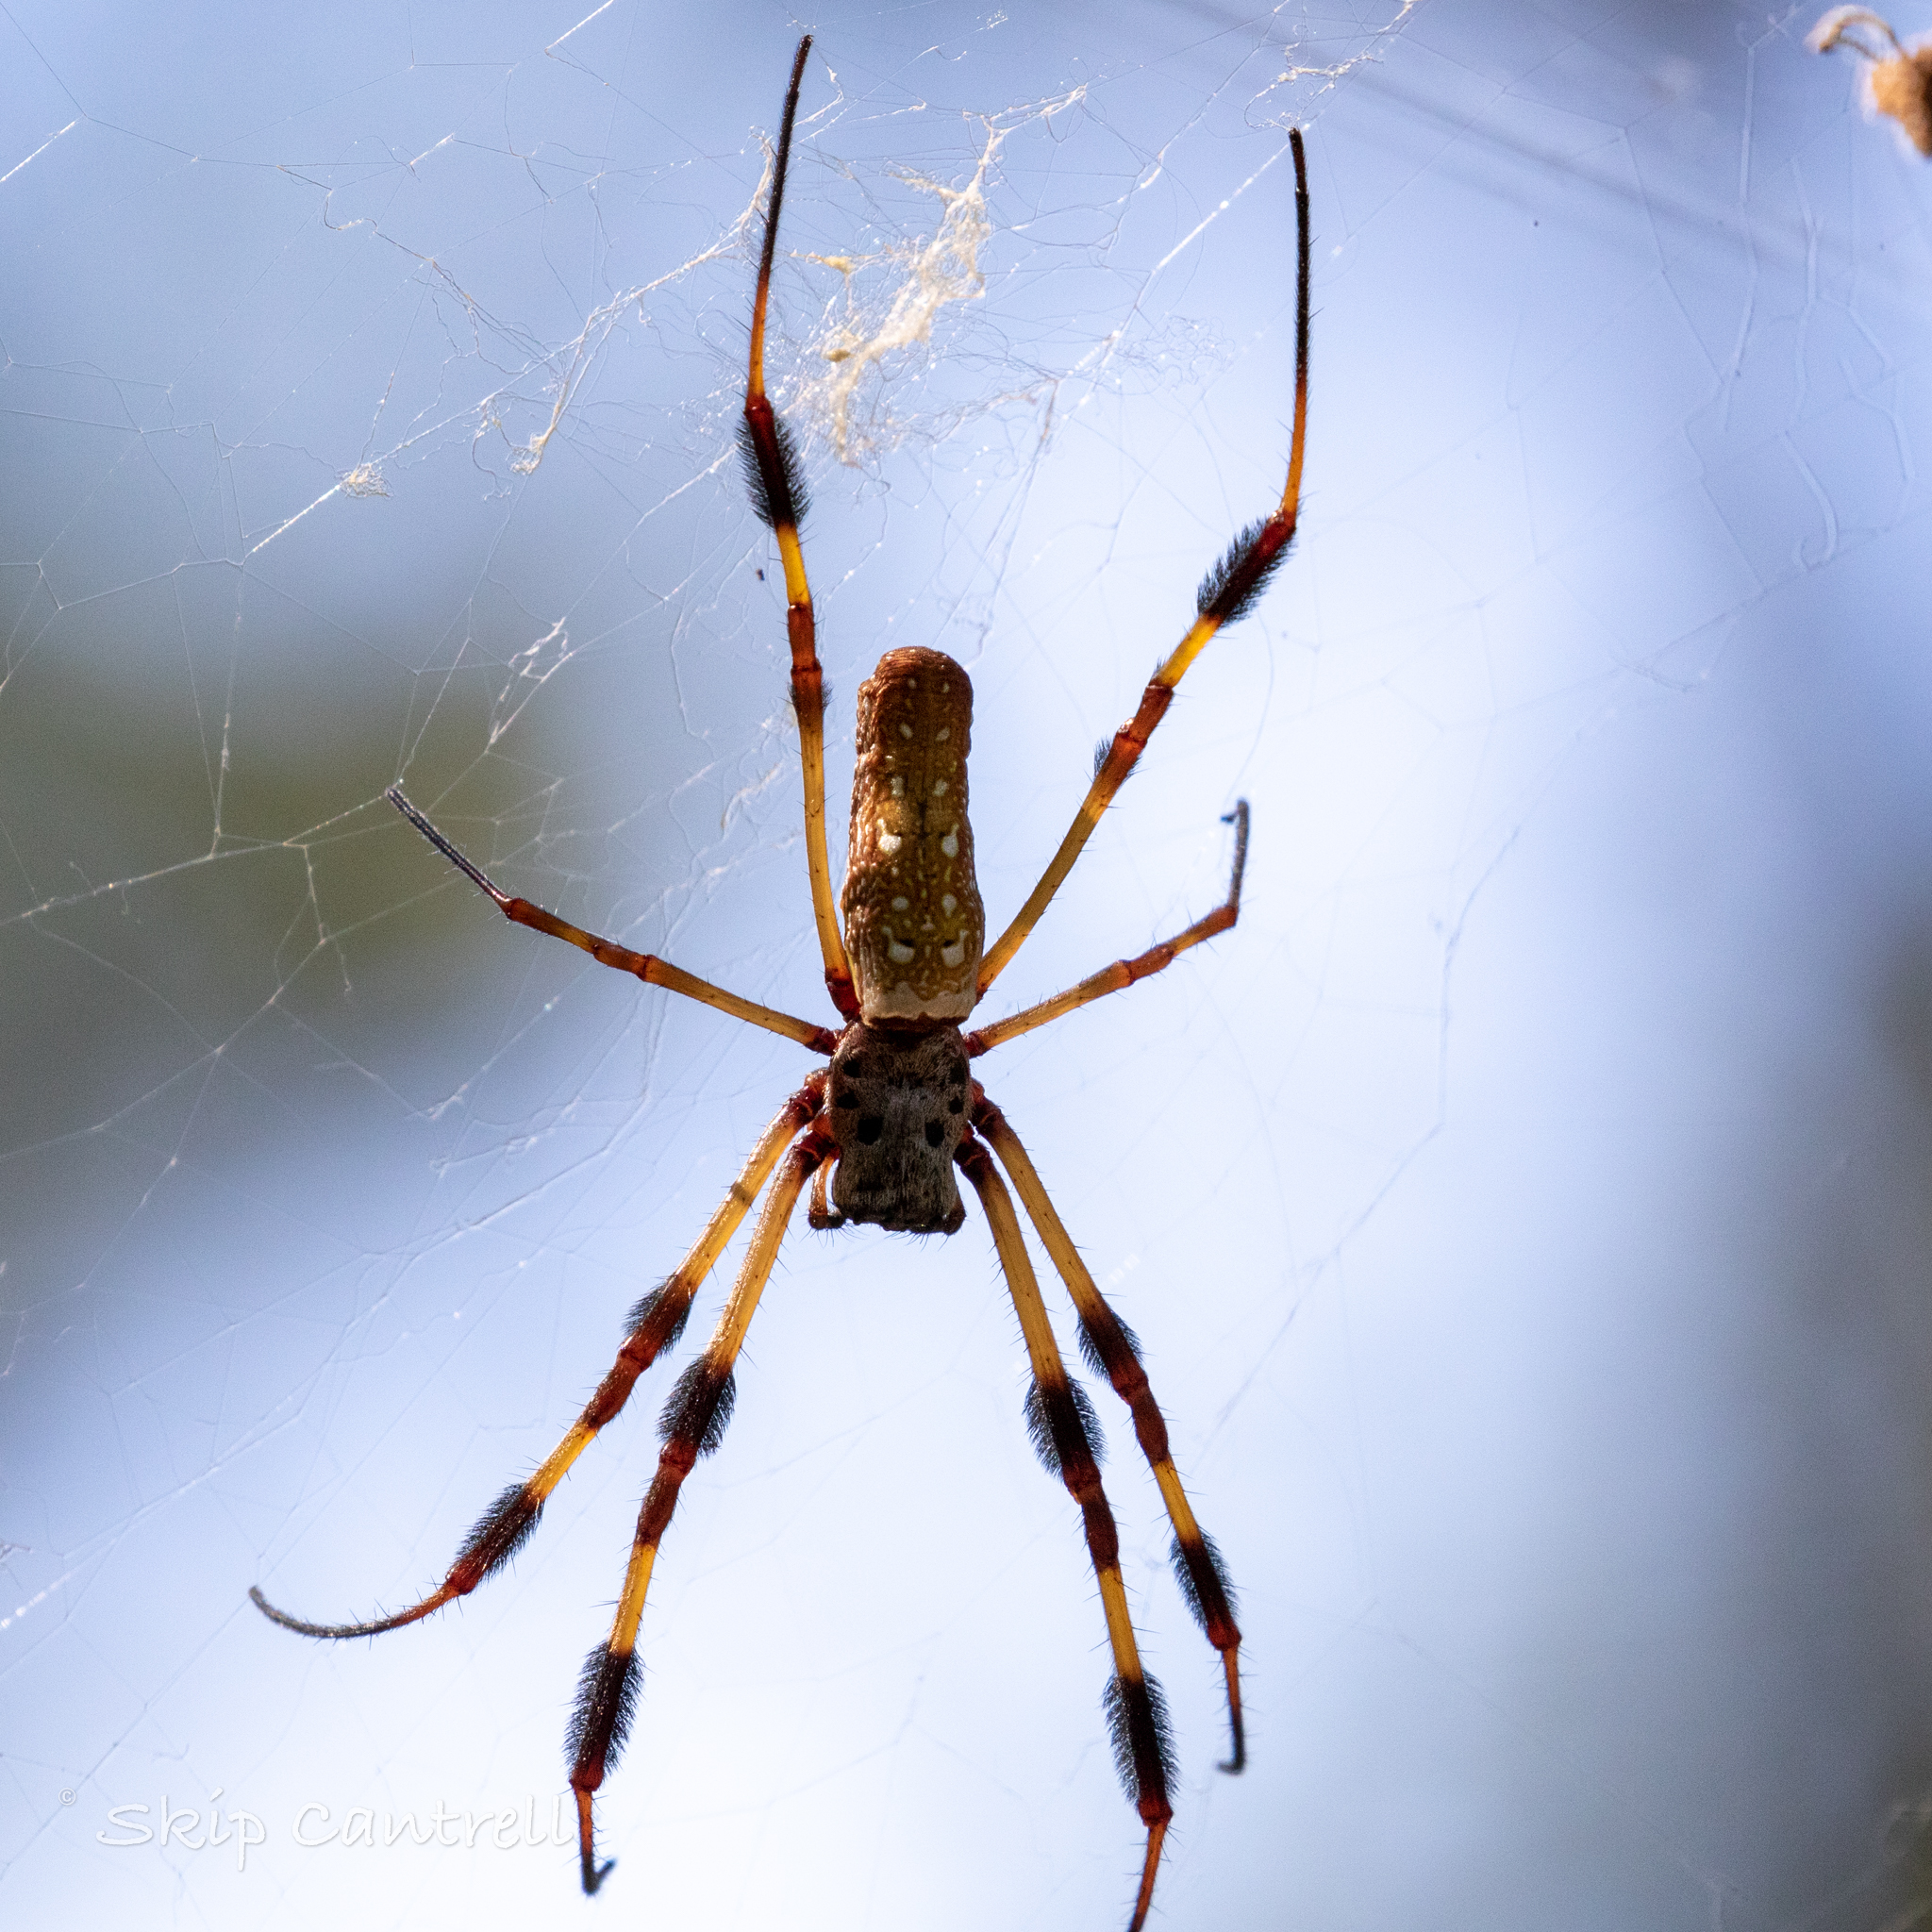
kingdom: Animalia
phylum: Arthropoda
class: Arachnida
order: Araneae
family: Araneidae
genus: Trichonephila
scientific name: Trichonephila clavipes
